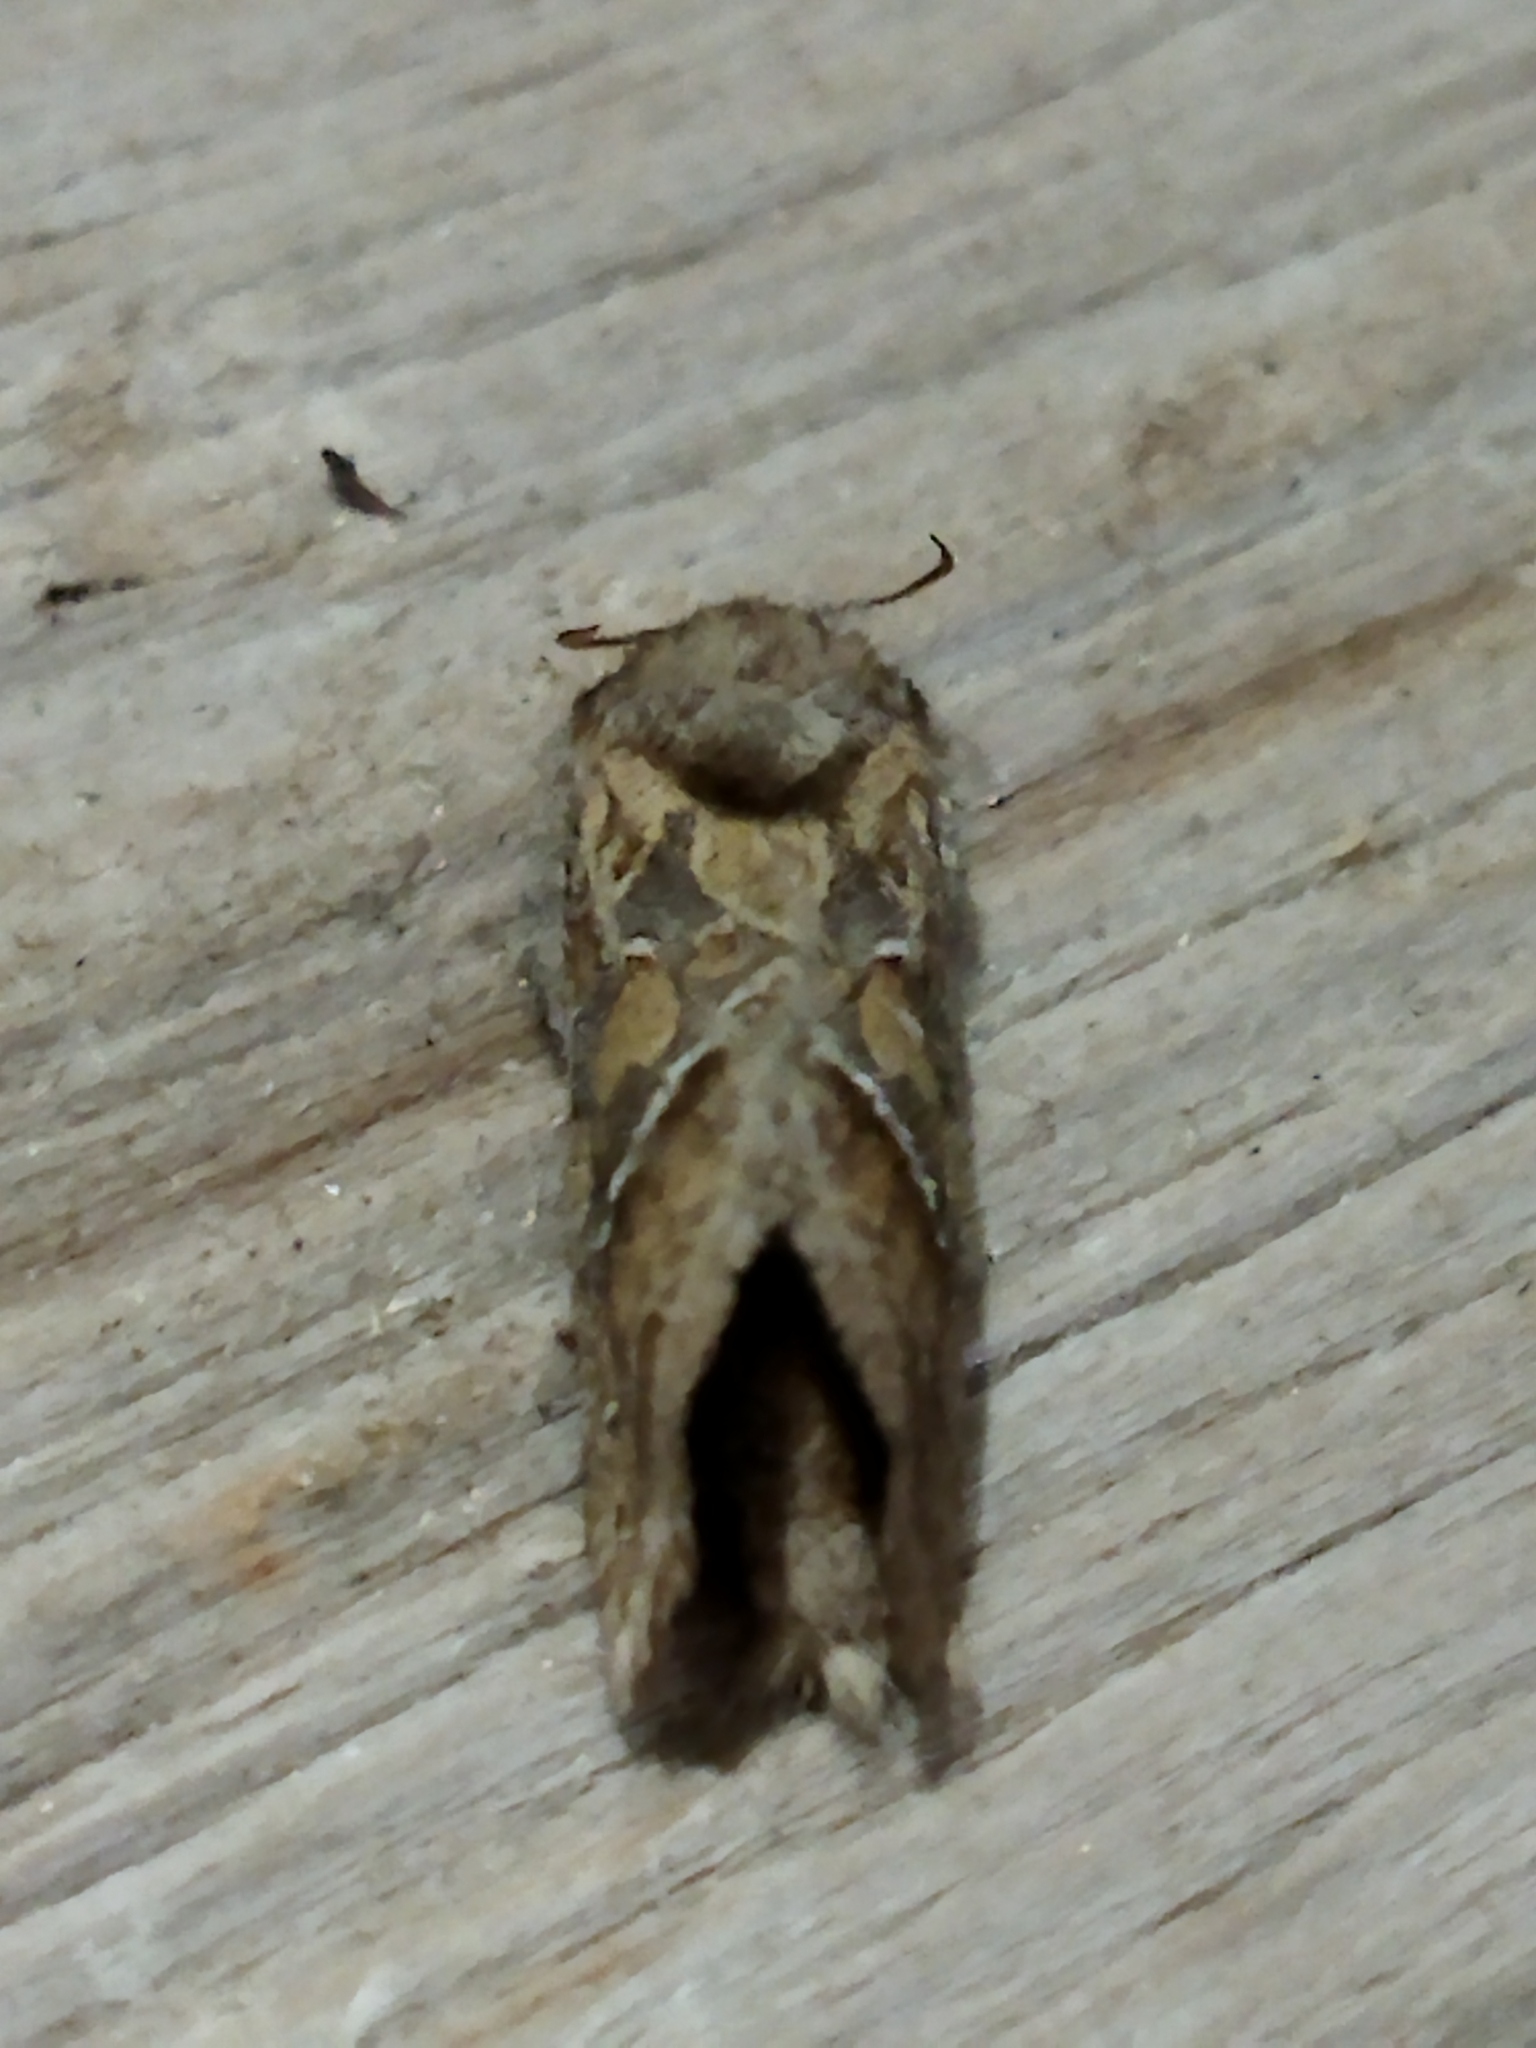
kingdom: Animalia
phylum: Arthropoda
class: Insecta
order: Lepidoptera
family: Hepialidae
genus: Triodia
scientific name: Triodia amasinus
